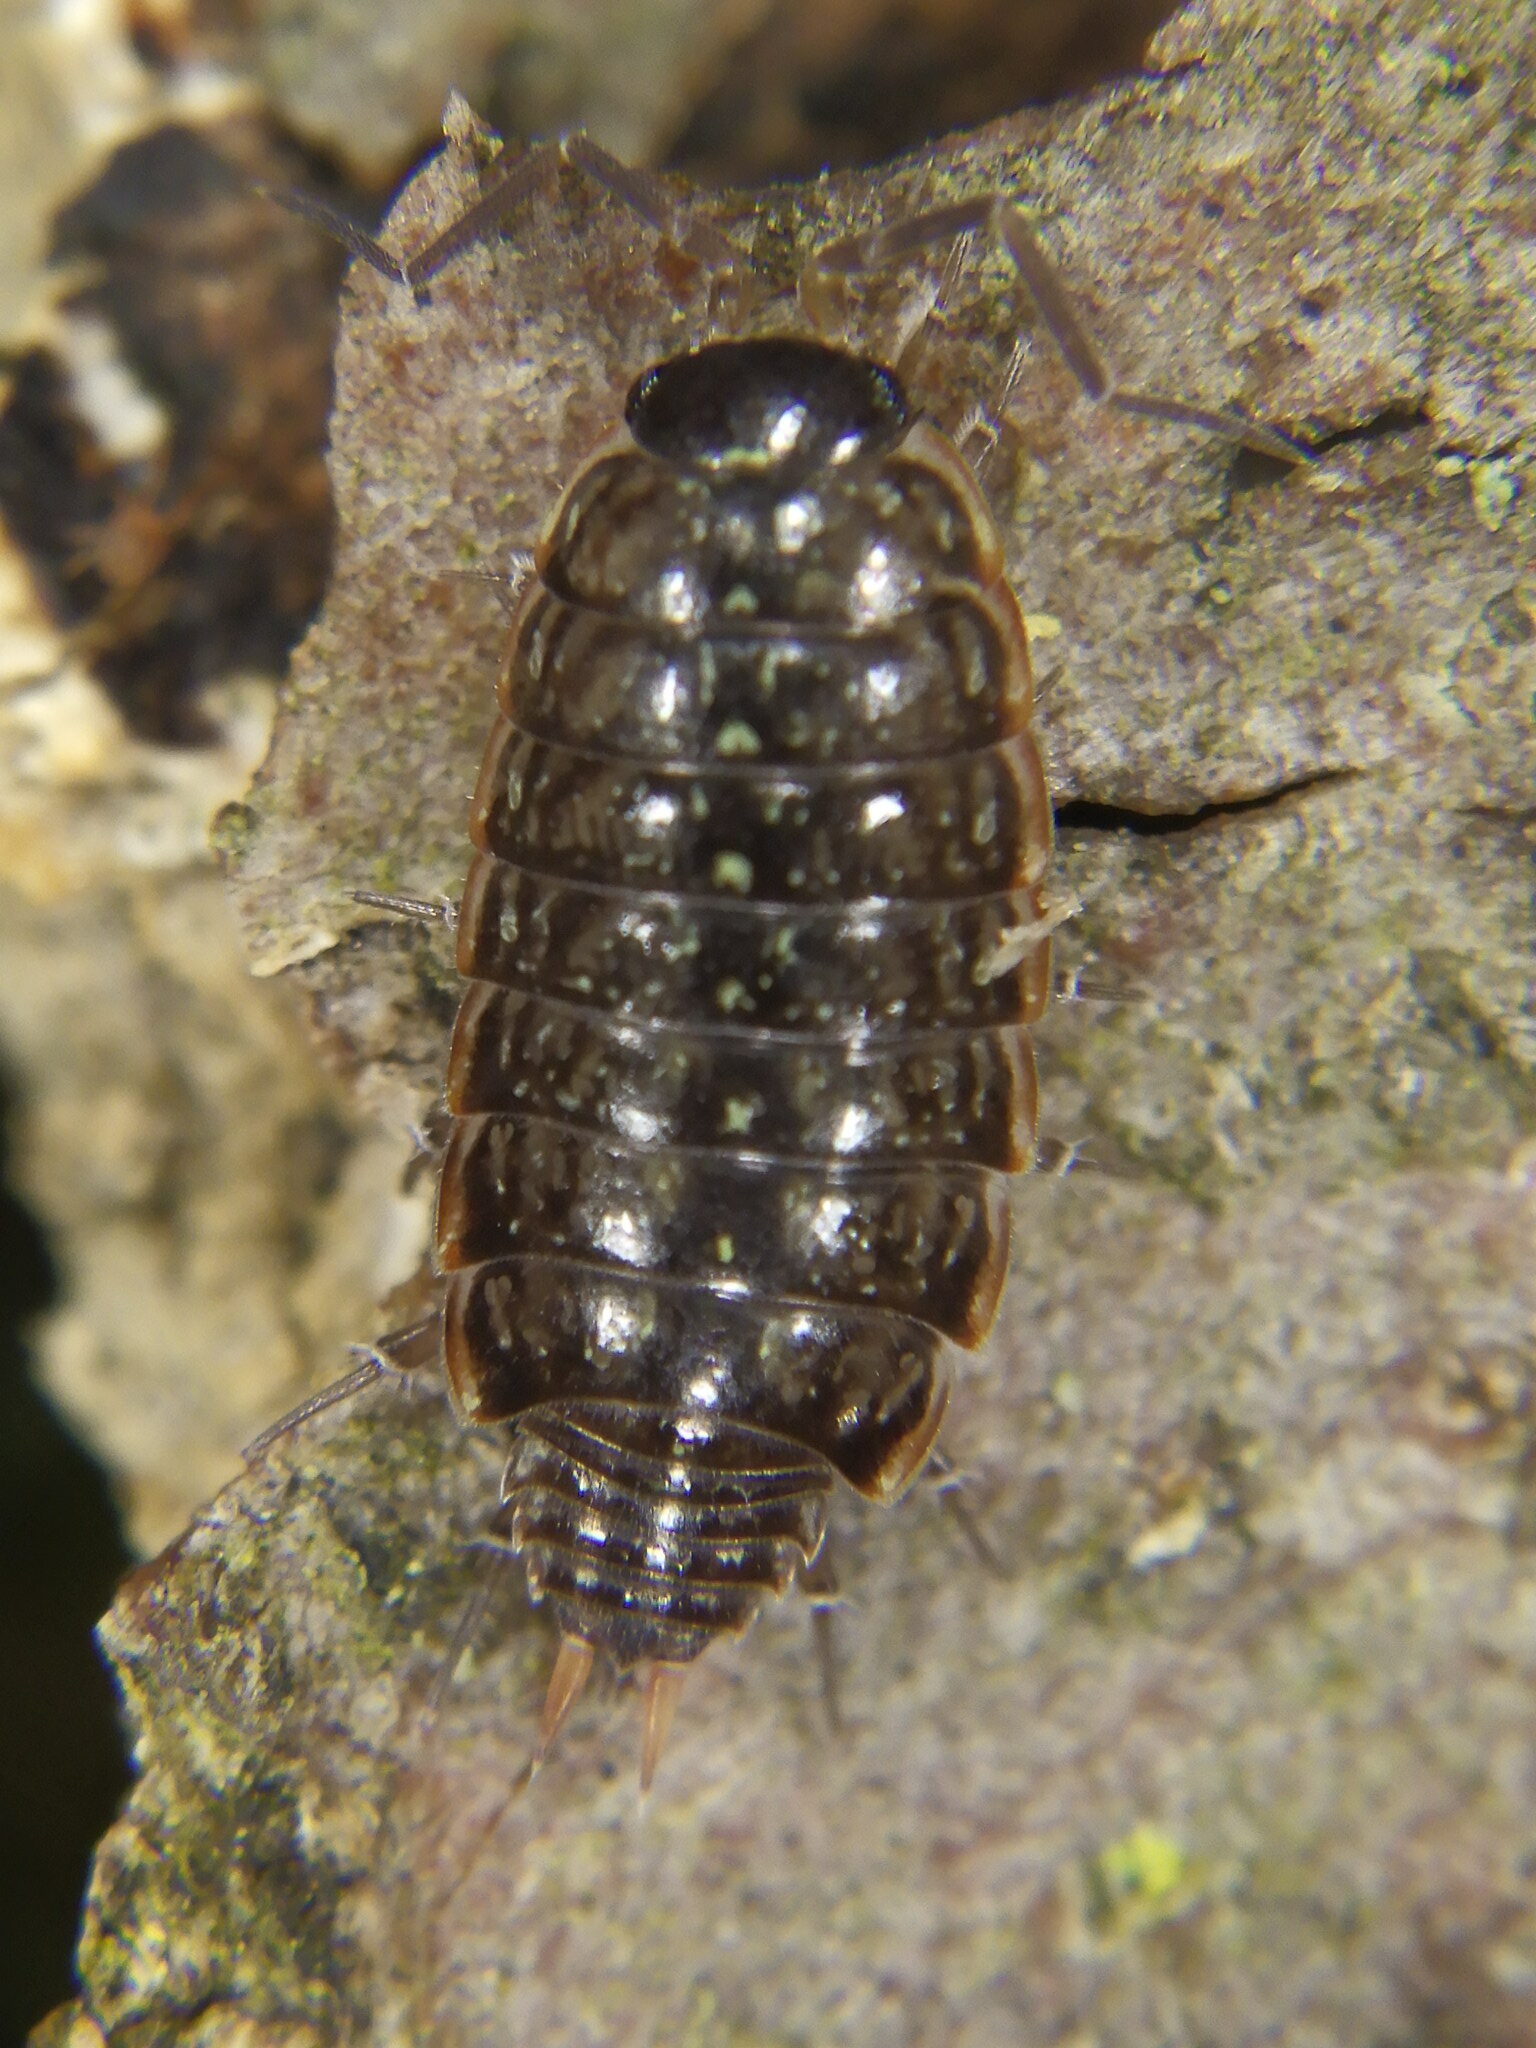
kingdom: Animalia
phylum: Arthropoda
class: Malacostraca
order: Isopoda
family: Philosciidae
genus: Philoscia
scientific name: Philoscia muscorum
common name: Common striped woodlouse
